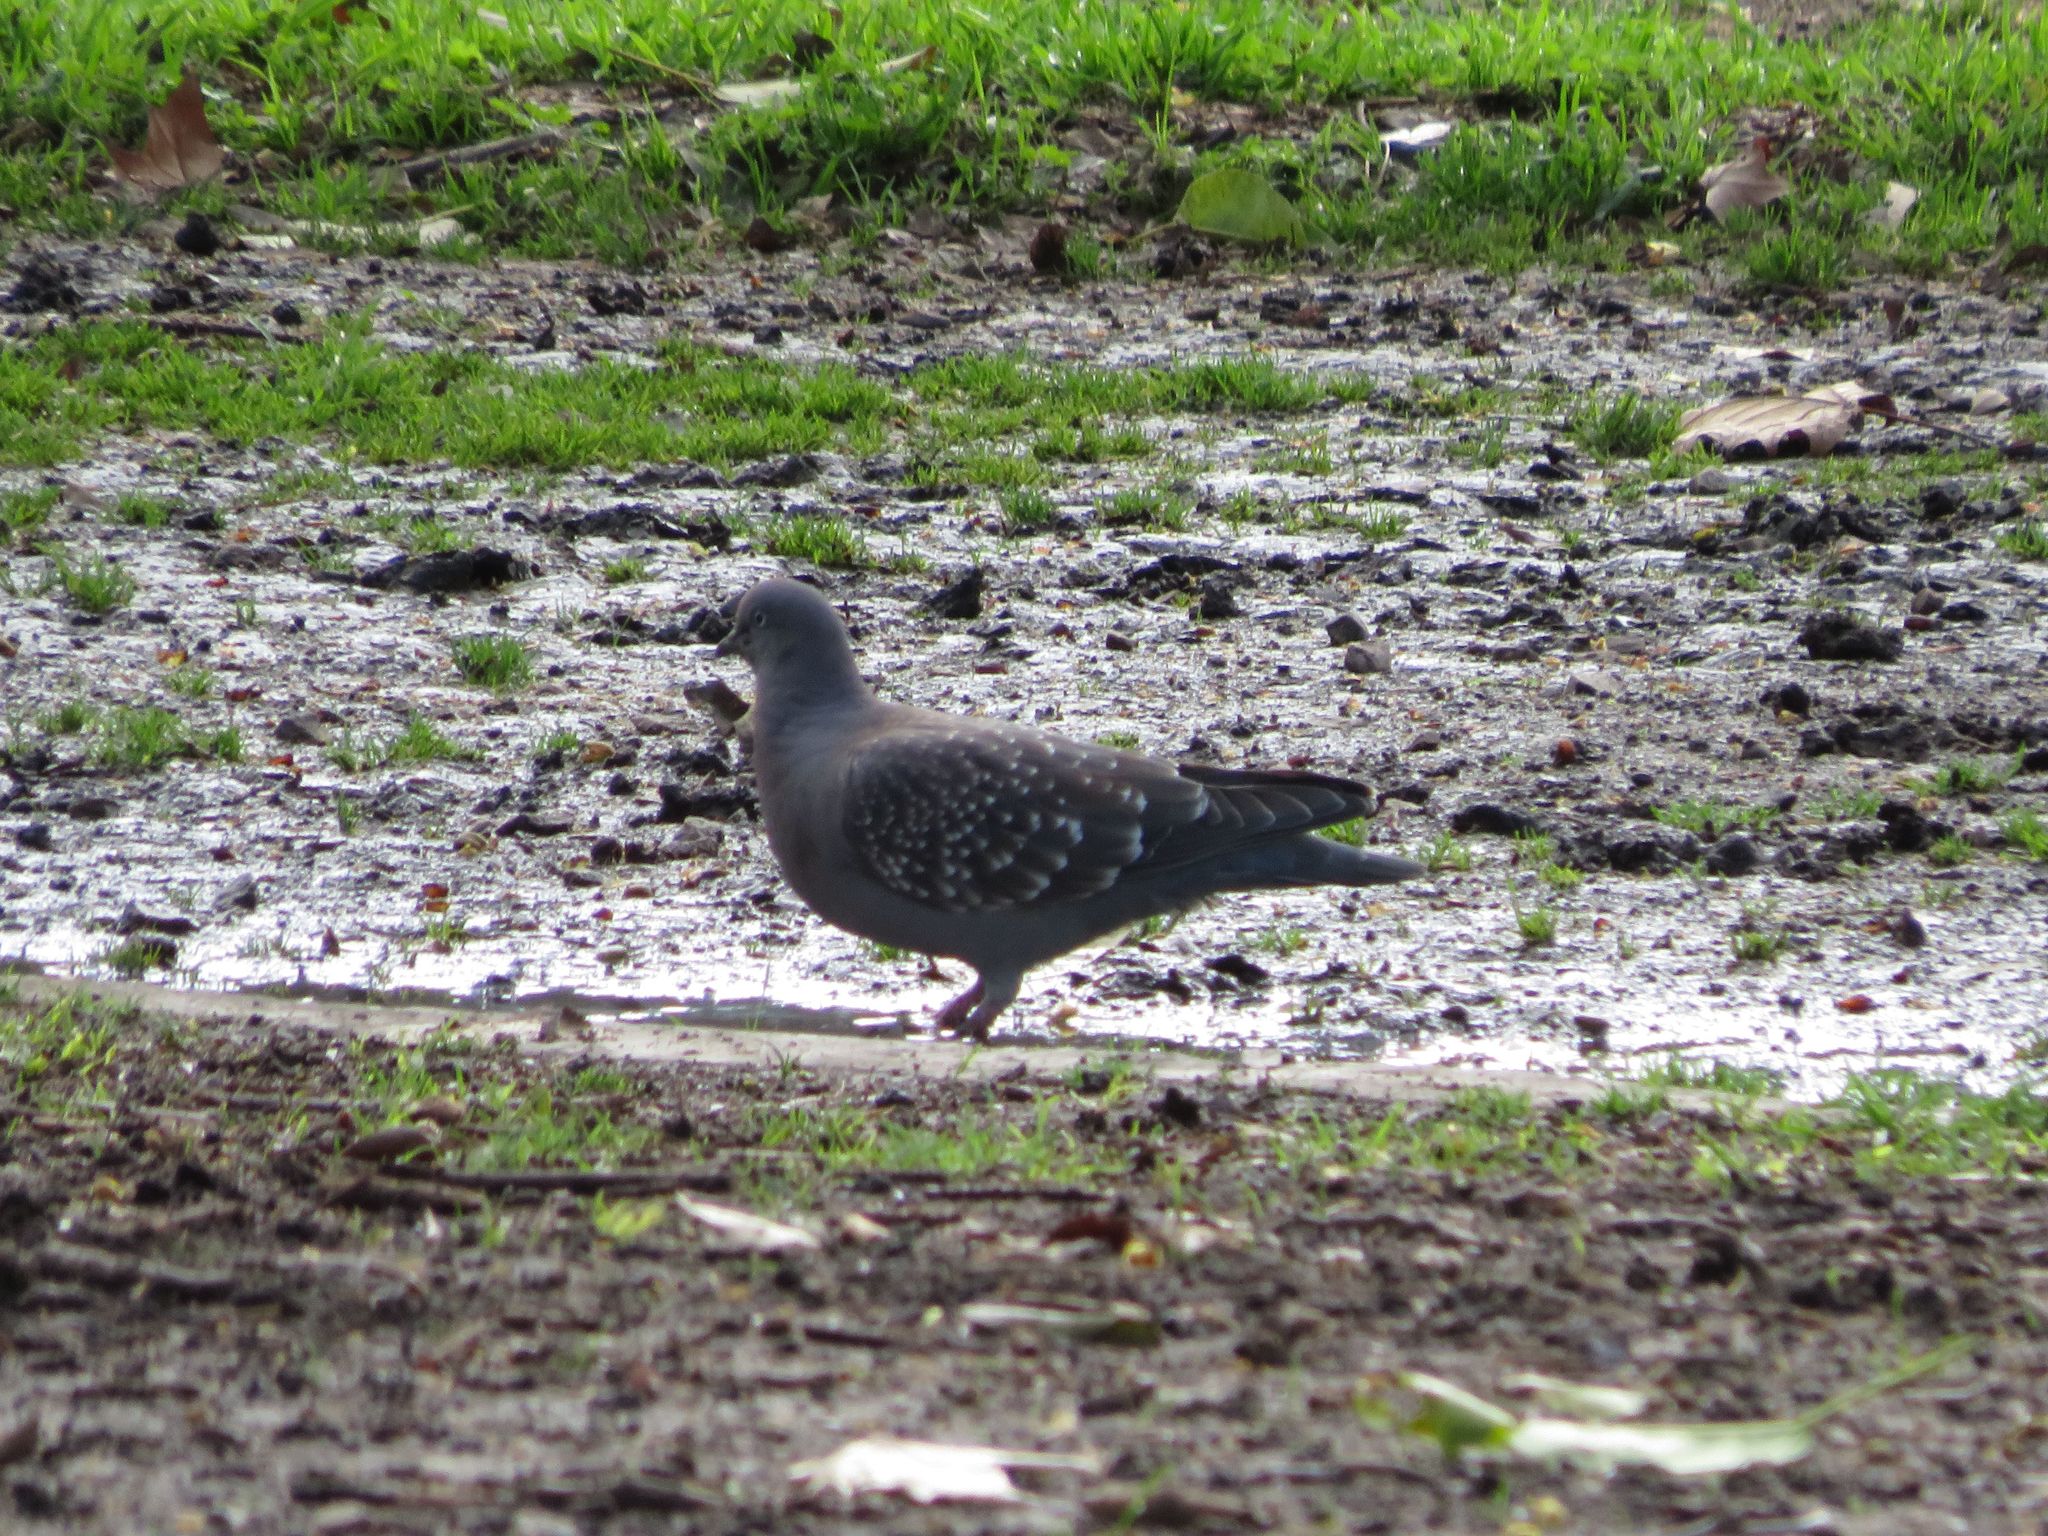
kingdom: Animalia
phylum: Chordata
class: Aves
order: Columbiformes
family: Columbidae
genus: Patagioenas
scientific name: Patagioenas maculosa
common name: Spot-winged pigeon
